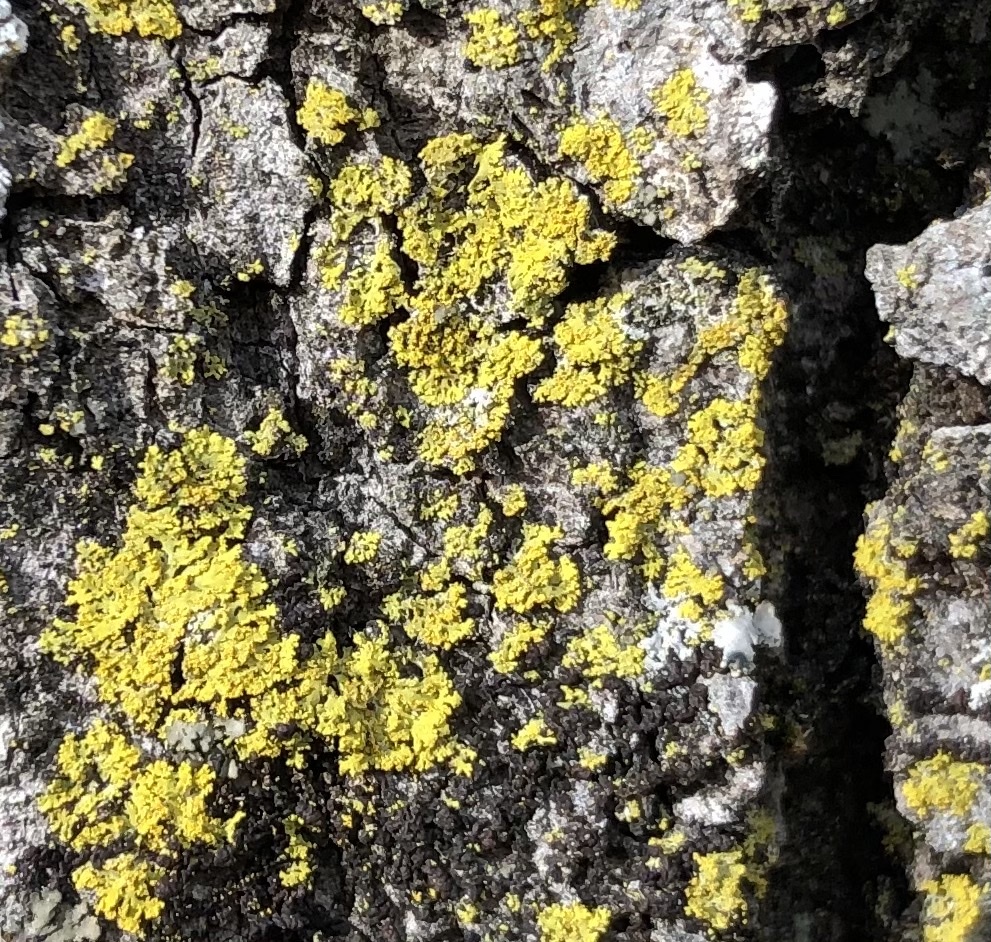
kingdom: Fungi
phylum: Ascomycota
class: Candelariomycetes
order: Candelariales
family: Candelariaceae
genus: Candelaria
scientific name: Candelaria concolor
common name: Candleflame lichen
